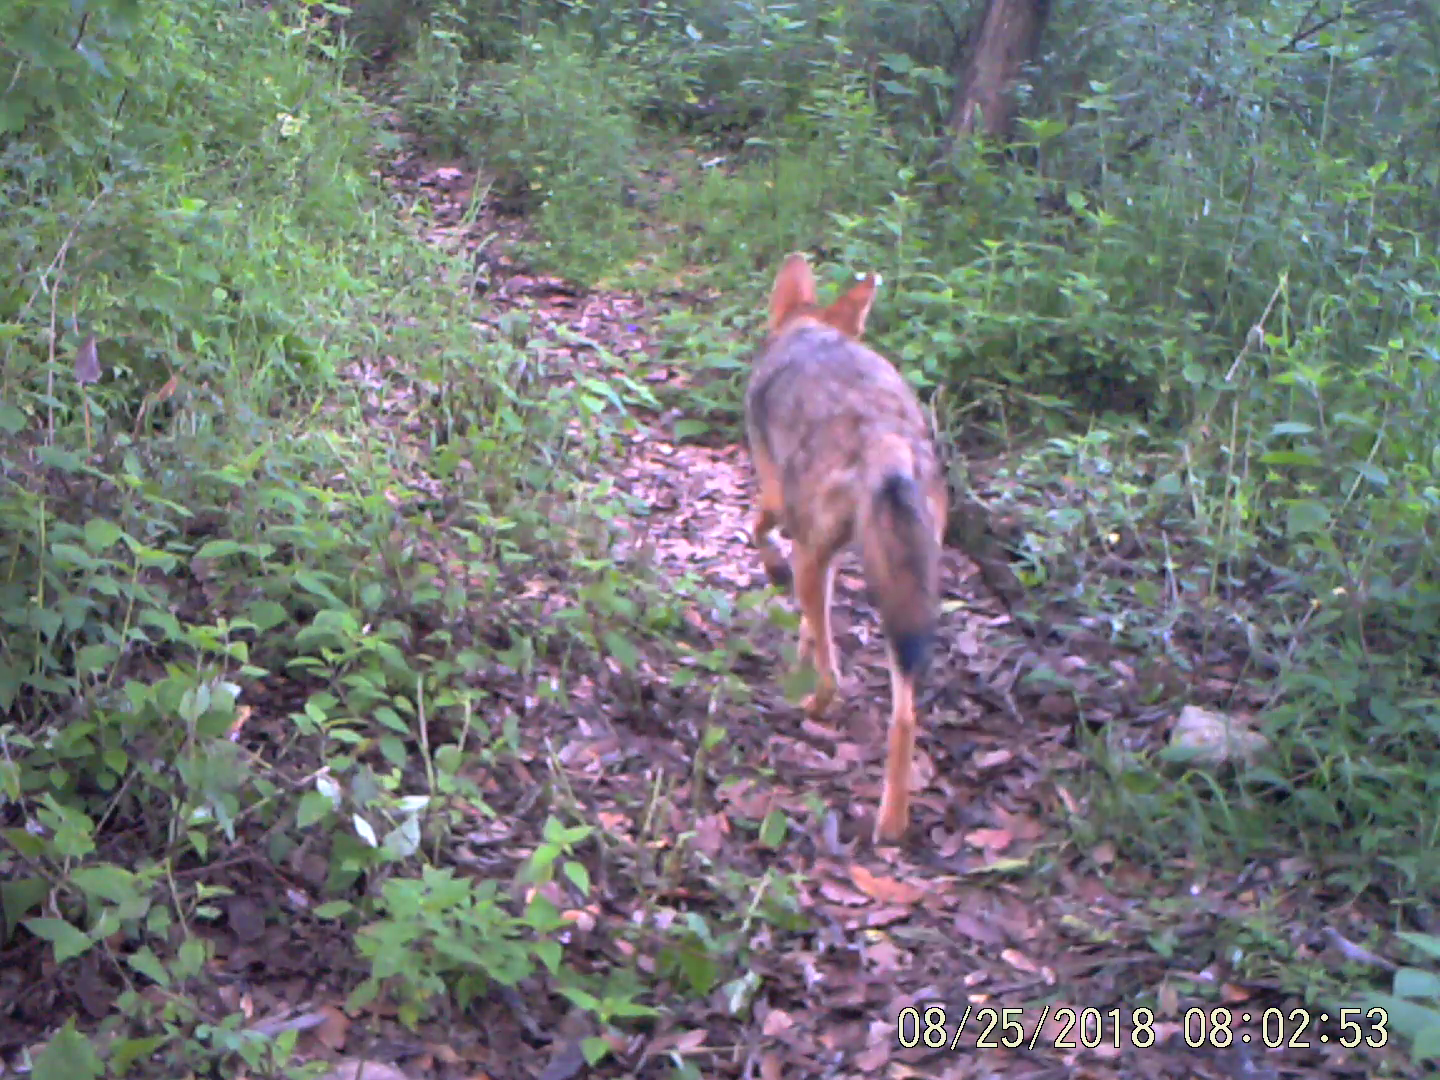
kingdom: Animalia
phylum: Chordata
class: Mammalia
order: Carnivora
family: Canidae
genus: Canis
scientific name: Canis latrans
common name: Coyote
